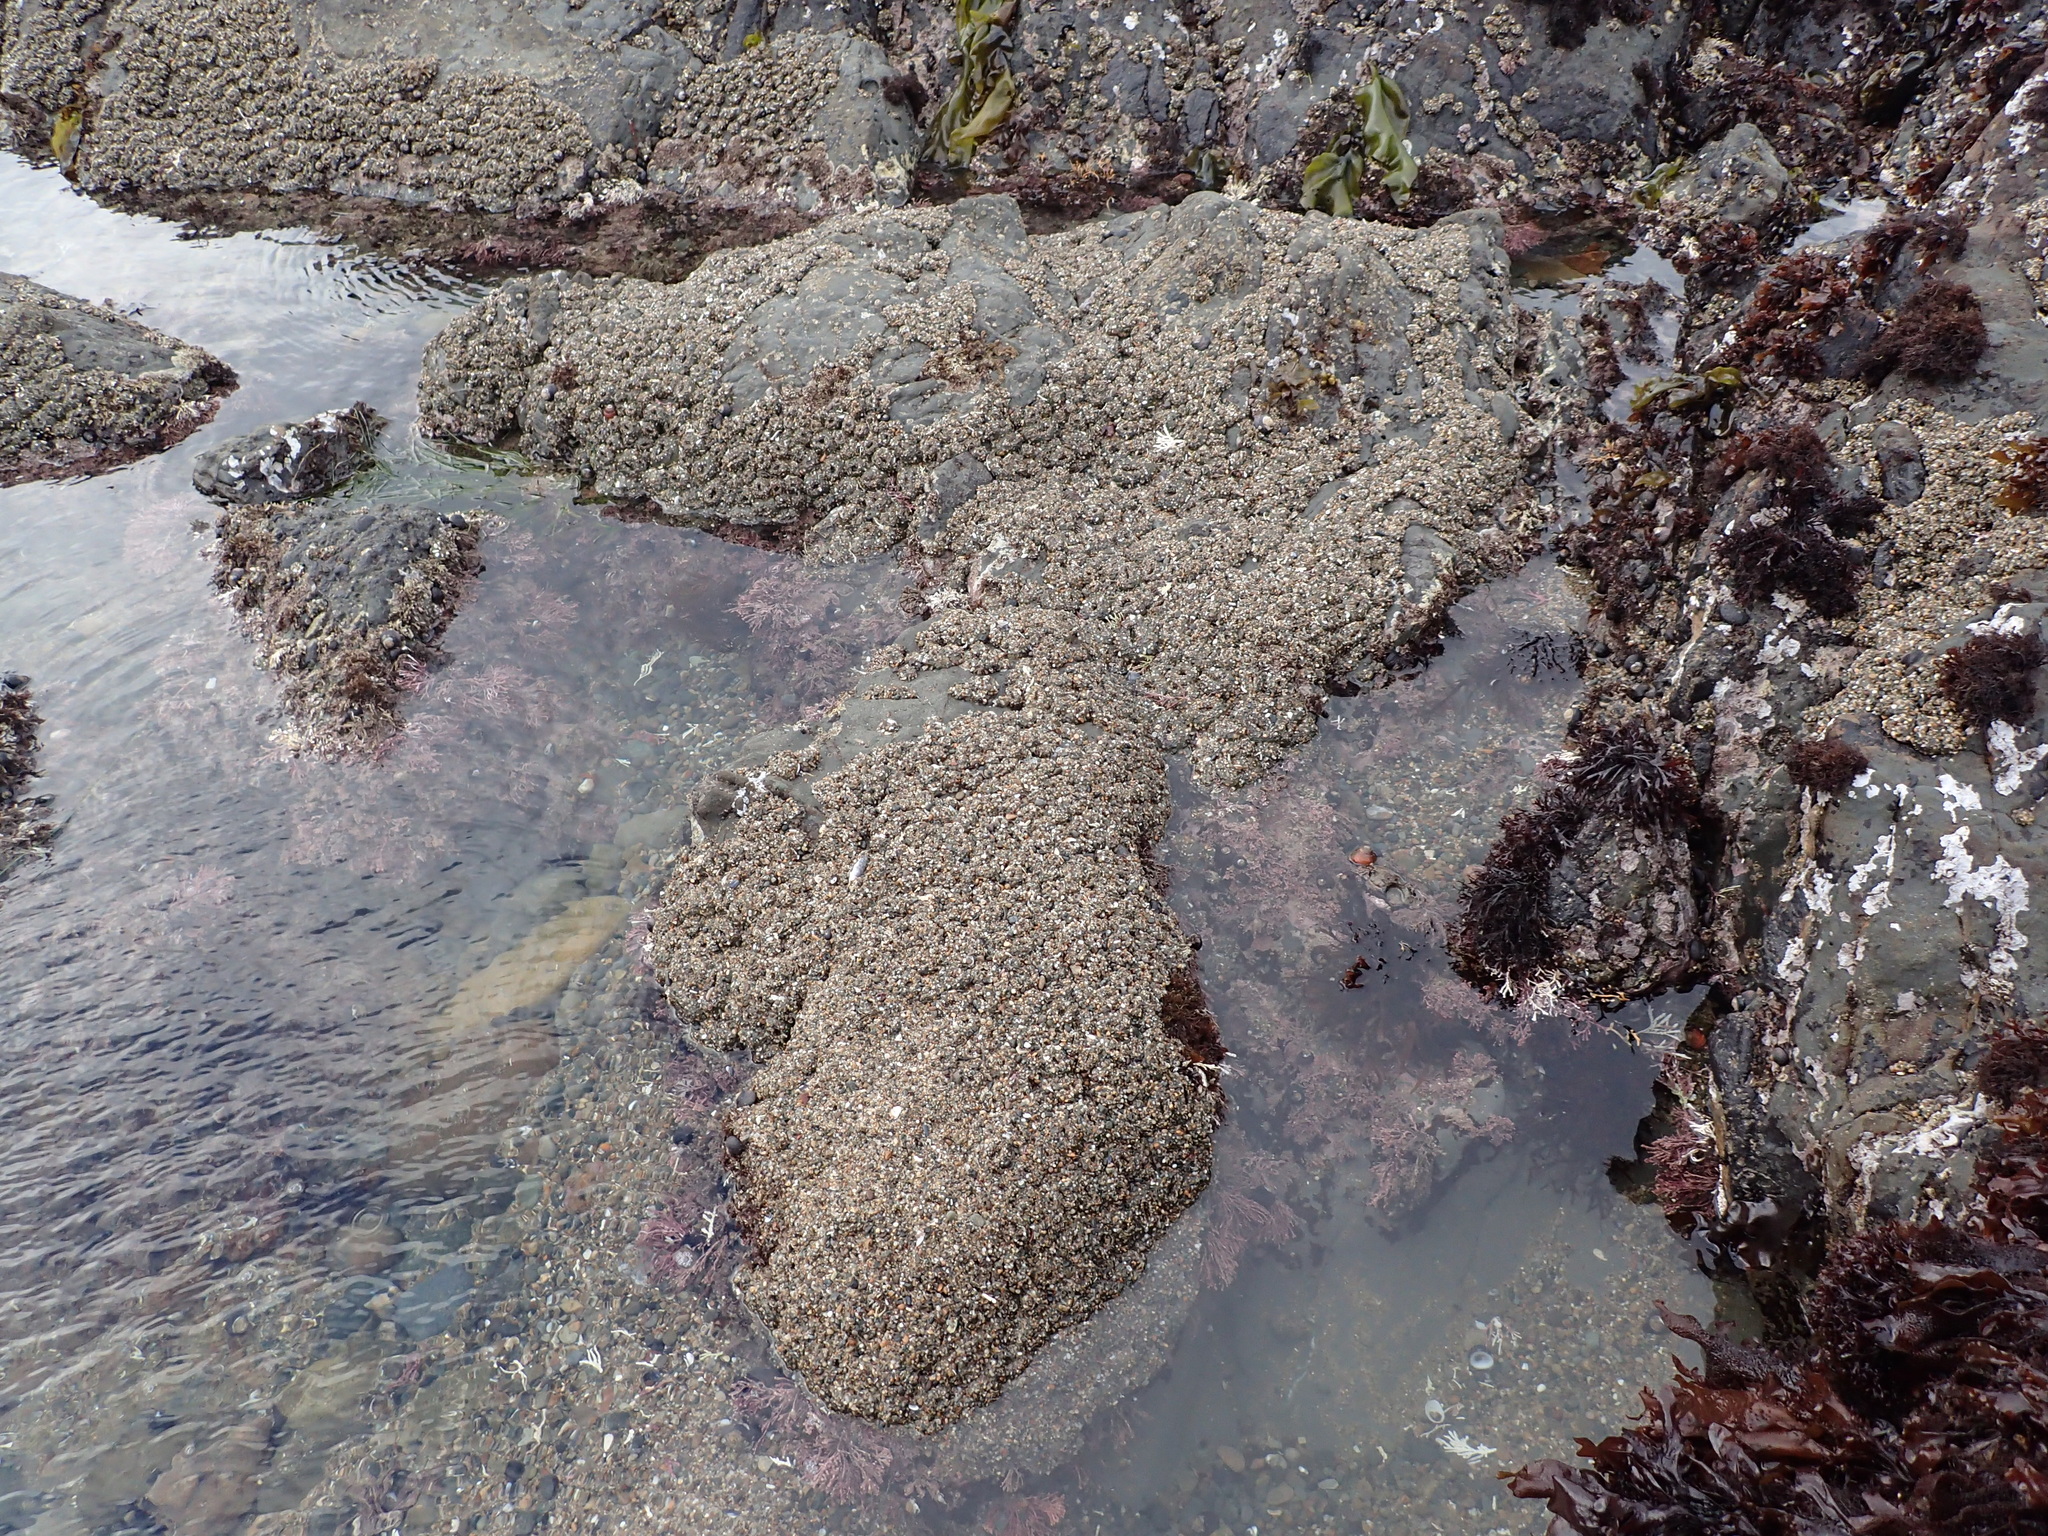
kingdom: Animalia
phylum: Cnidaria
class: Anthozoa
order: Actiniaria
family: Actiniidae
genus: Anthopleura
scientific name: Anthopleura elegantissima
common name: Clonal anemone
